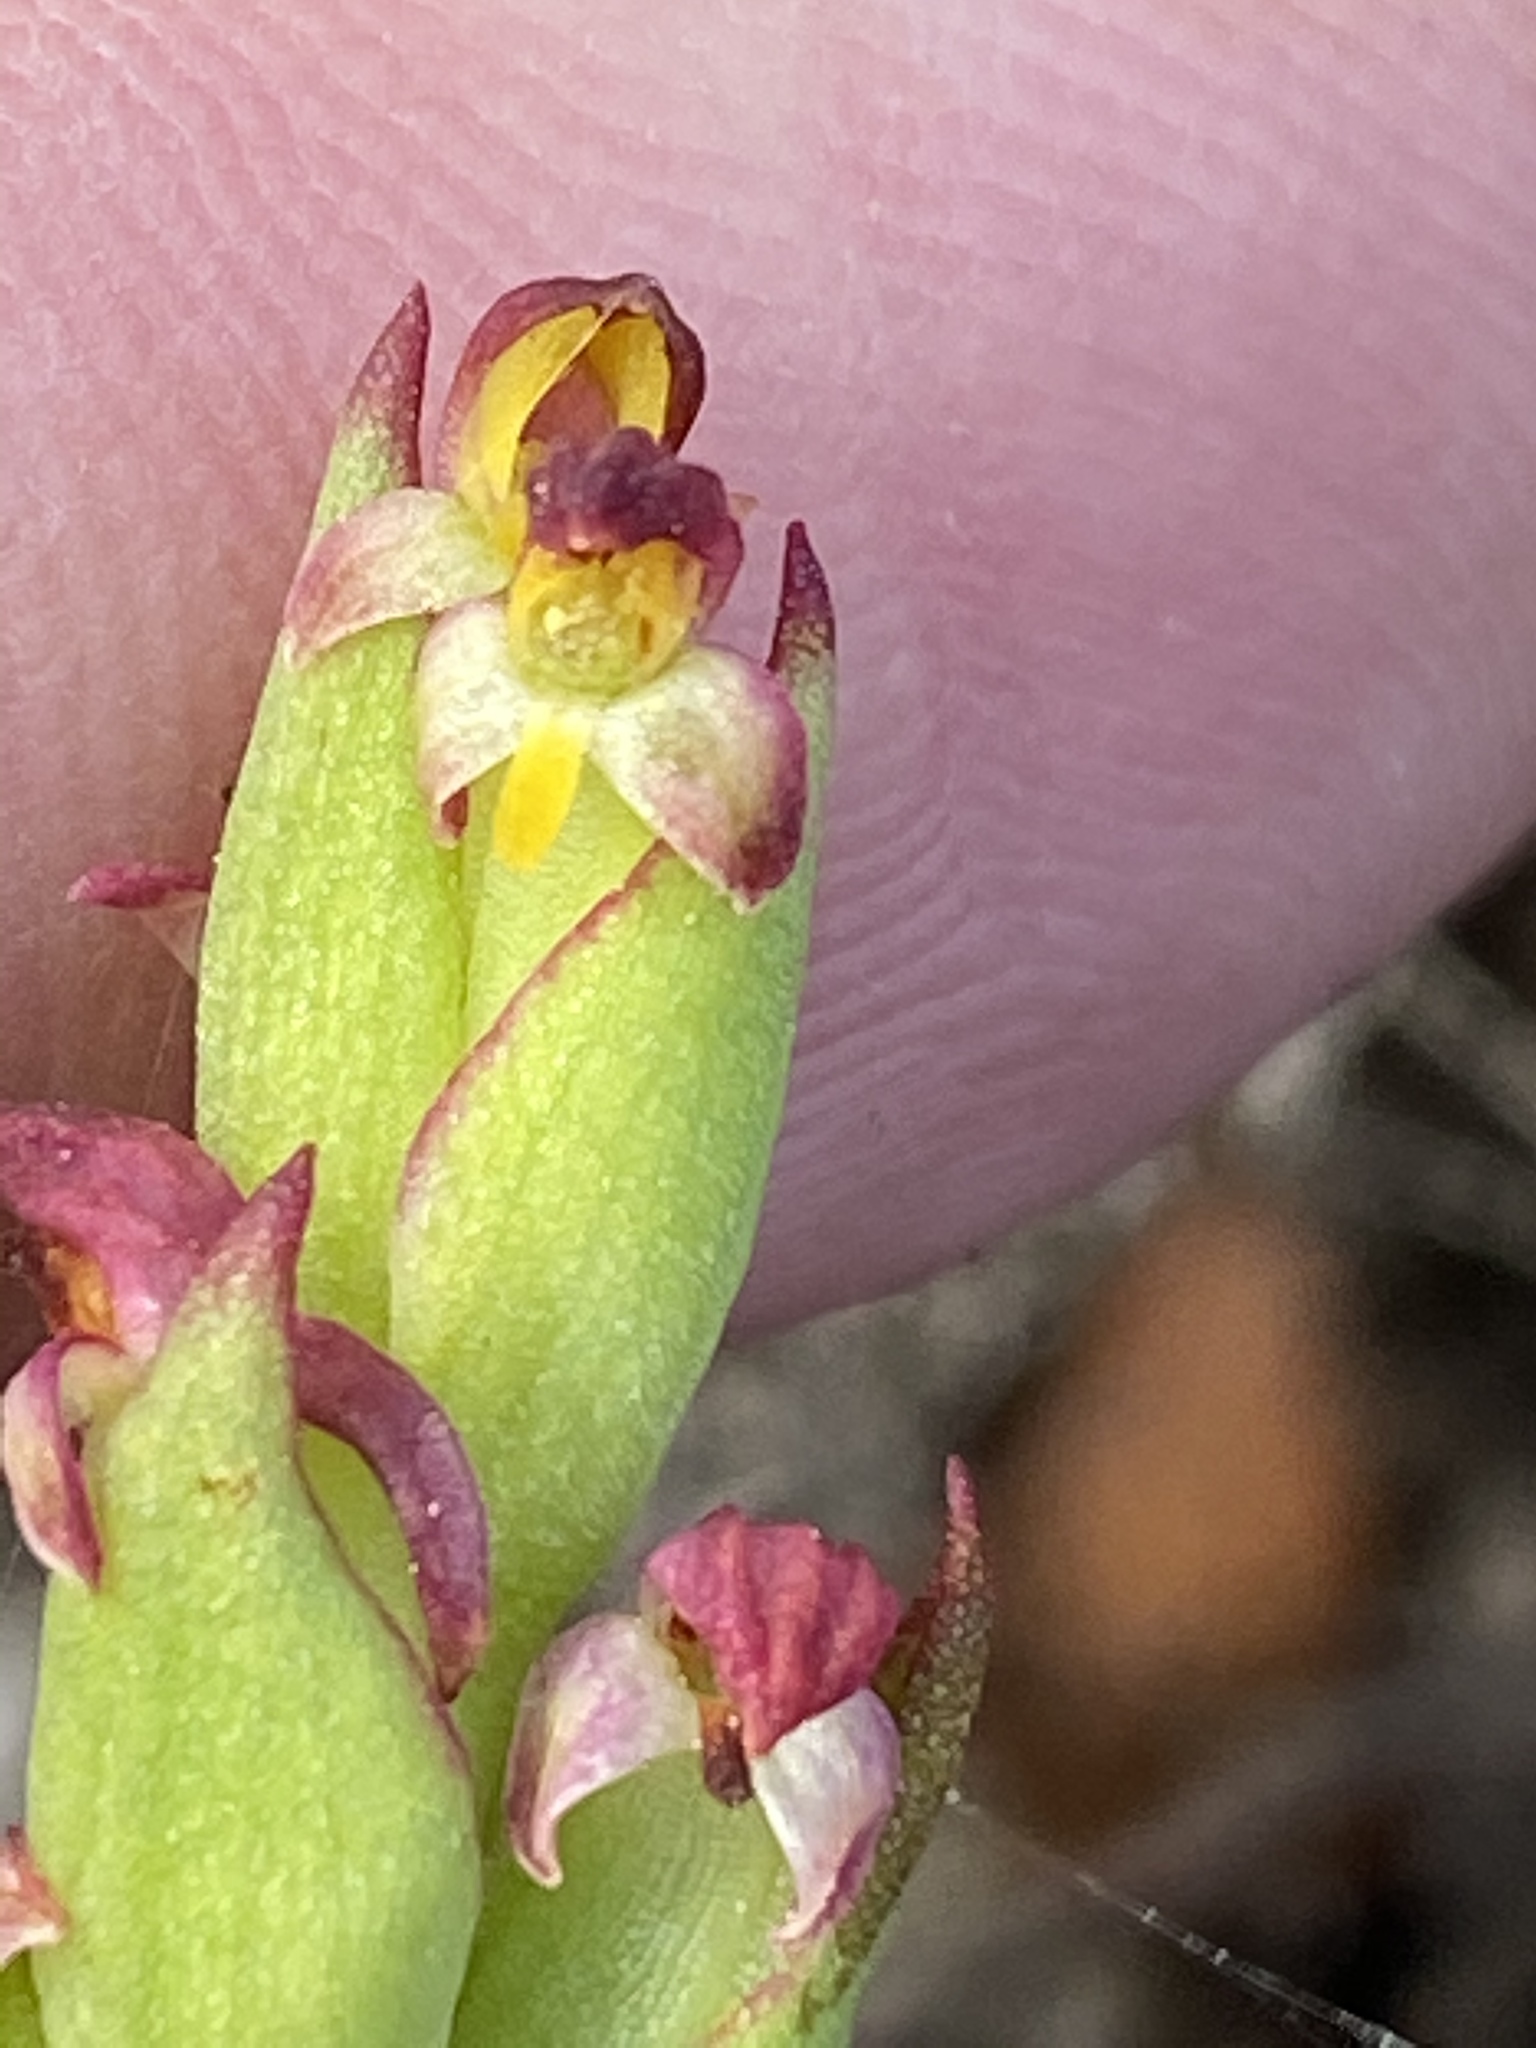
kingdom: Plantae
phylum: Tracheophyta
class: Liliopsida
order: Asparagales
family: Orchidaceae
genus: Disa
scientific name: Disa bracteata
